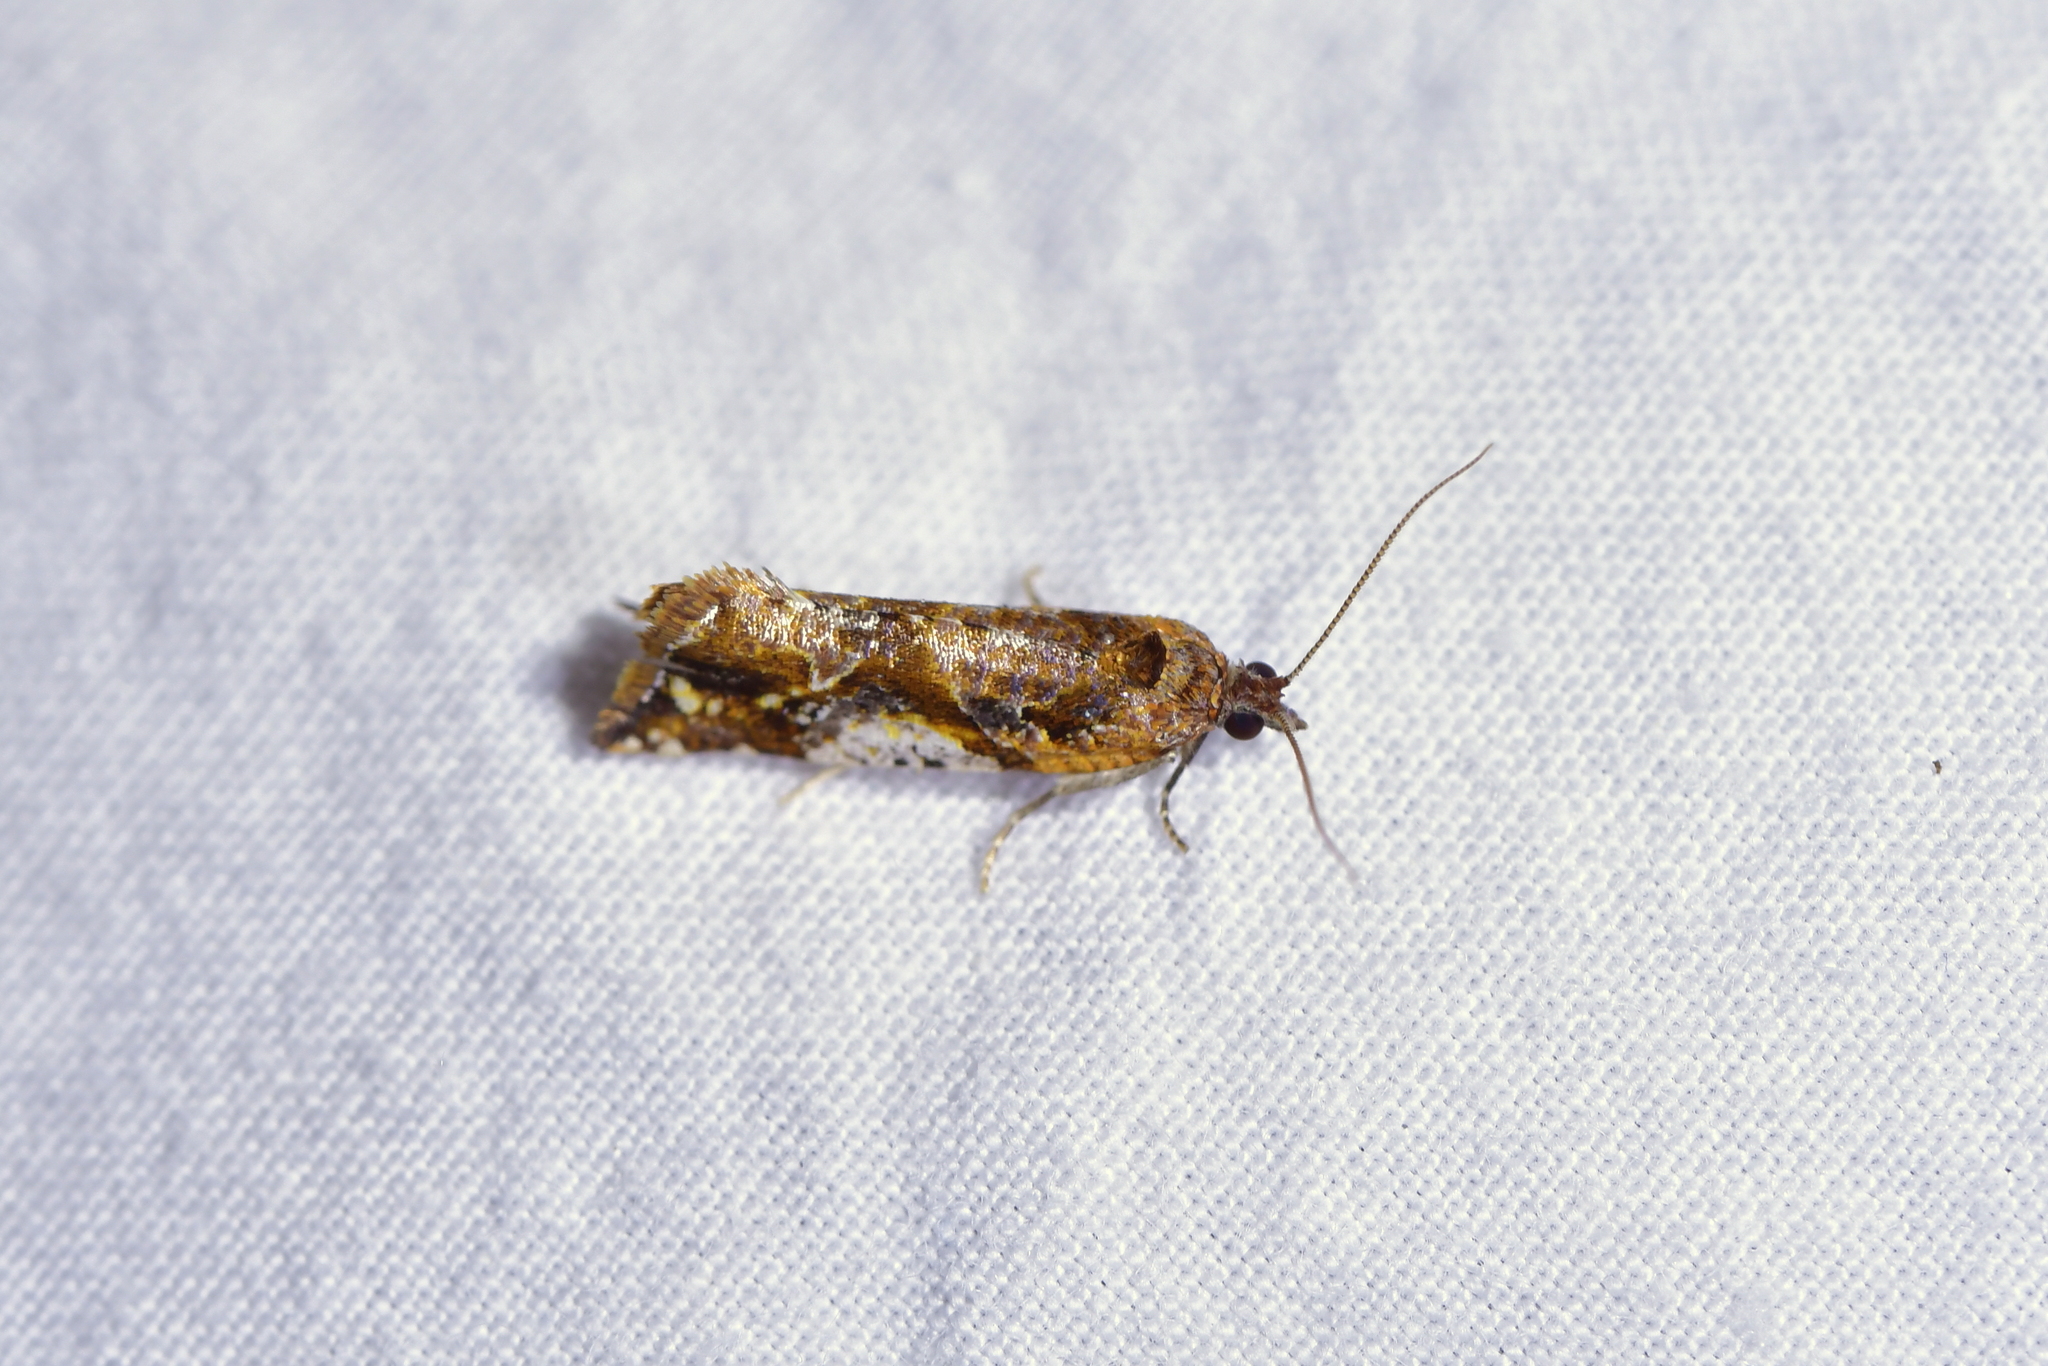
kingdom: Animalia
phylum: Arthropoda
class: Insecta
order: Lepidoptera
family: Tortricidae
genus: Pyrgotis
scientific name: Pyrgotis plagiatana
